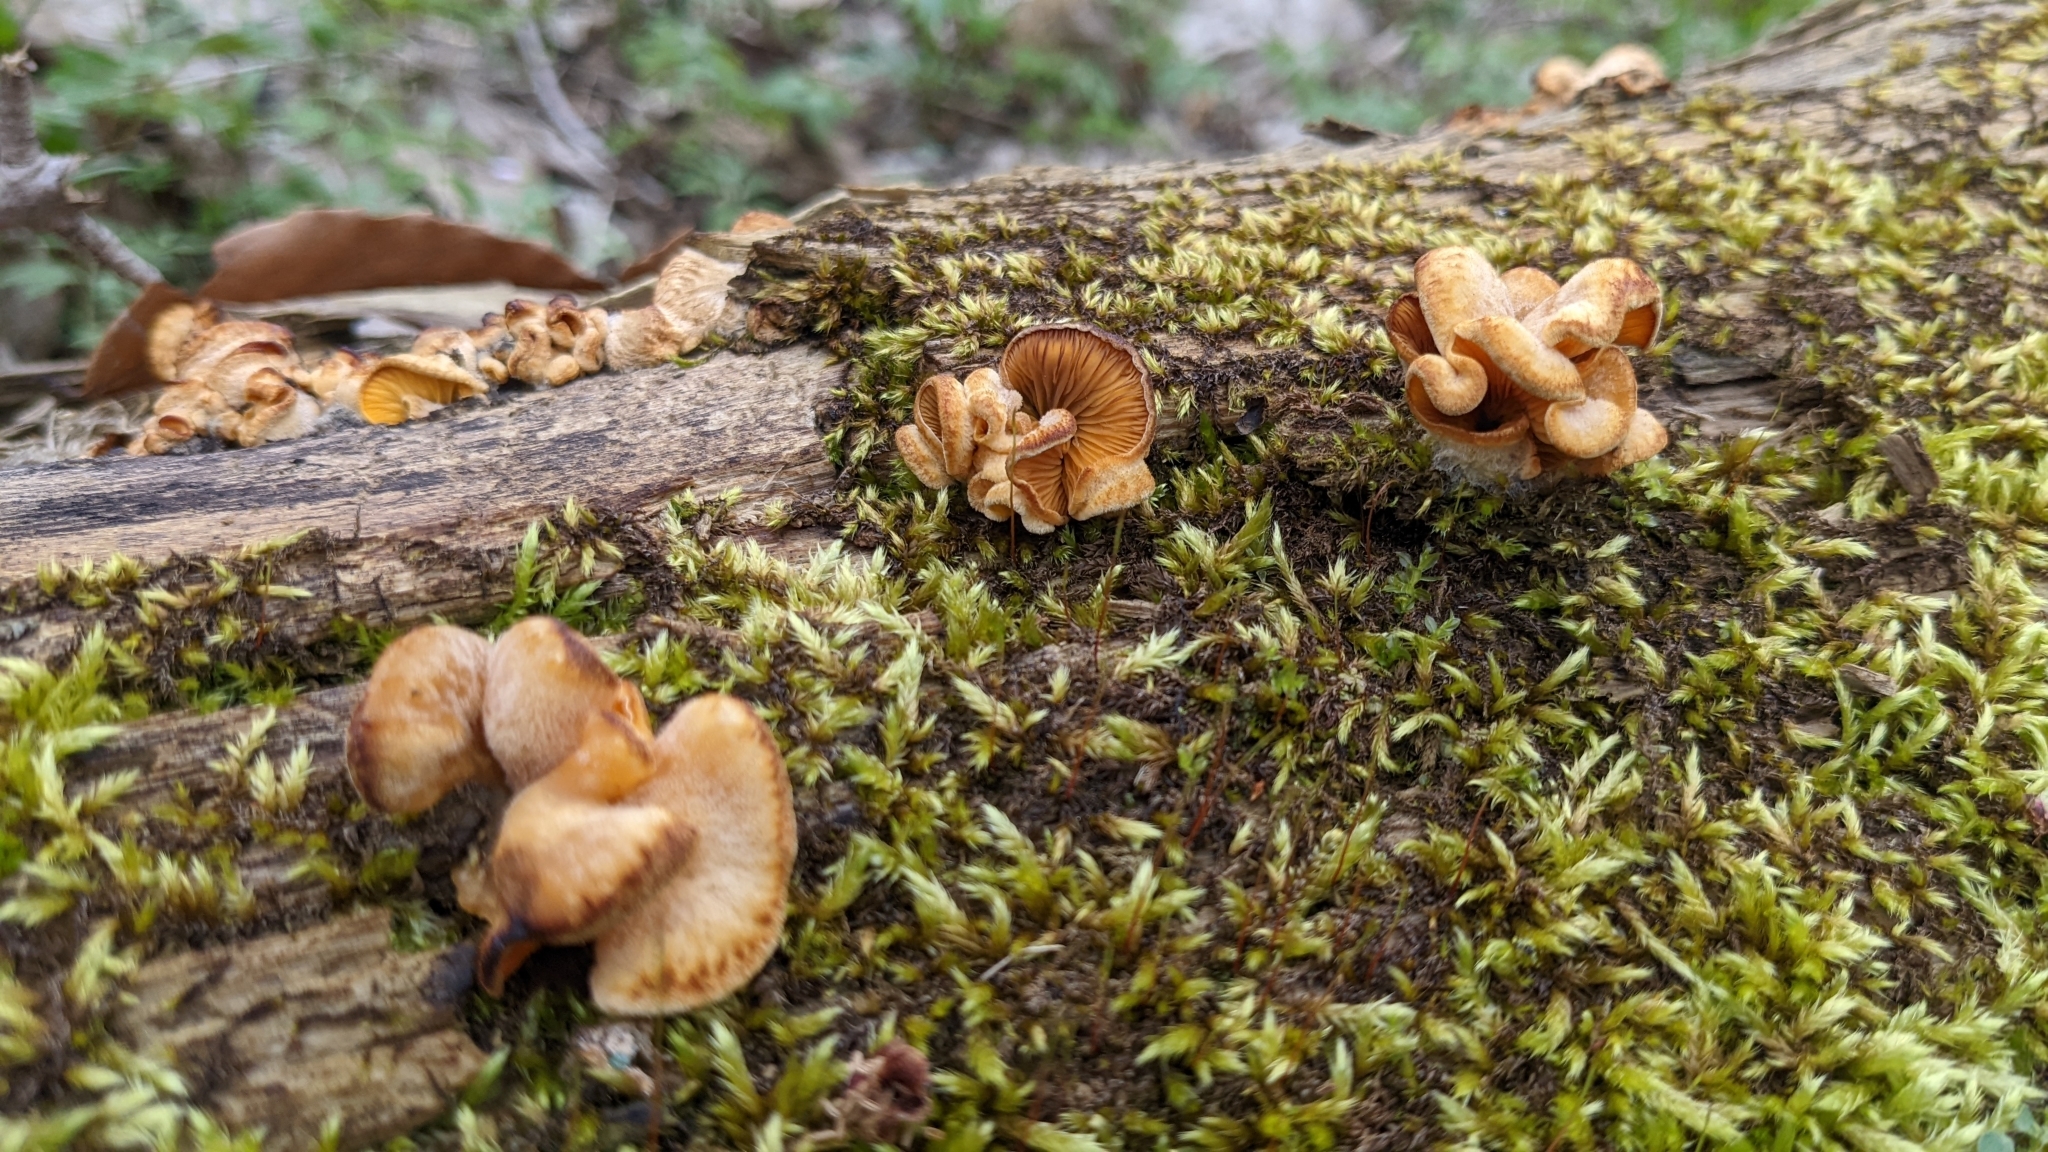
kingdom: Fungi
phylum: Basidiomycota
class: Agaricomycetes
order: Agaricales
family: Phyllotopsidaceae
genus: Phyllotopsis
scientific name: Phyllotopsis nidulans
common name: Orange mock oyster
